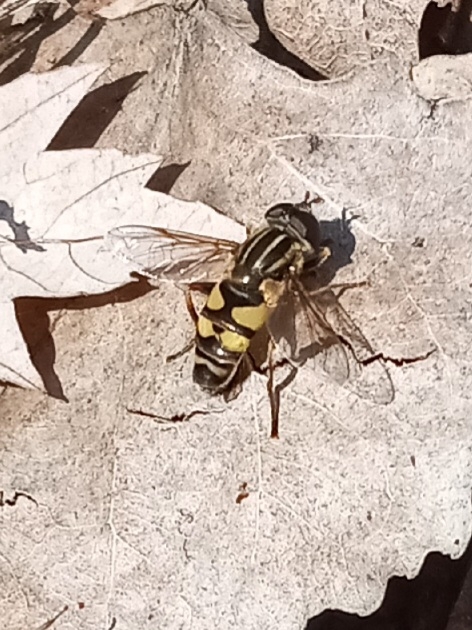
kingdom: Animalia
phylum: Arthropoda
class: Insecta
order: Diptera
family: Syrphidae
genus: Helophilus
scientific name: Helophilus fasciatus
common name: Narrow-headed marsh fly
